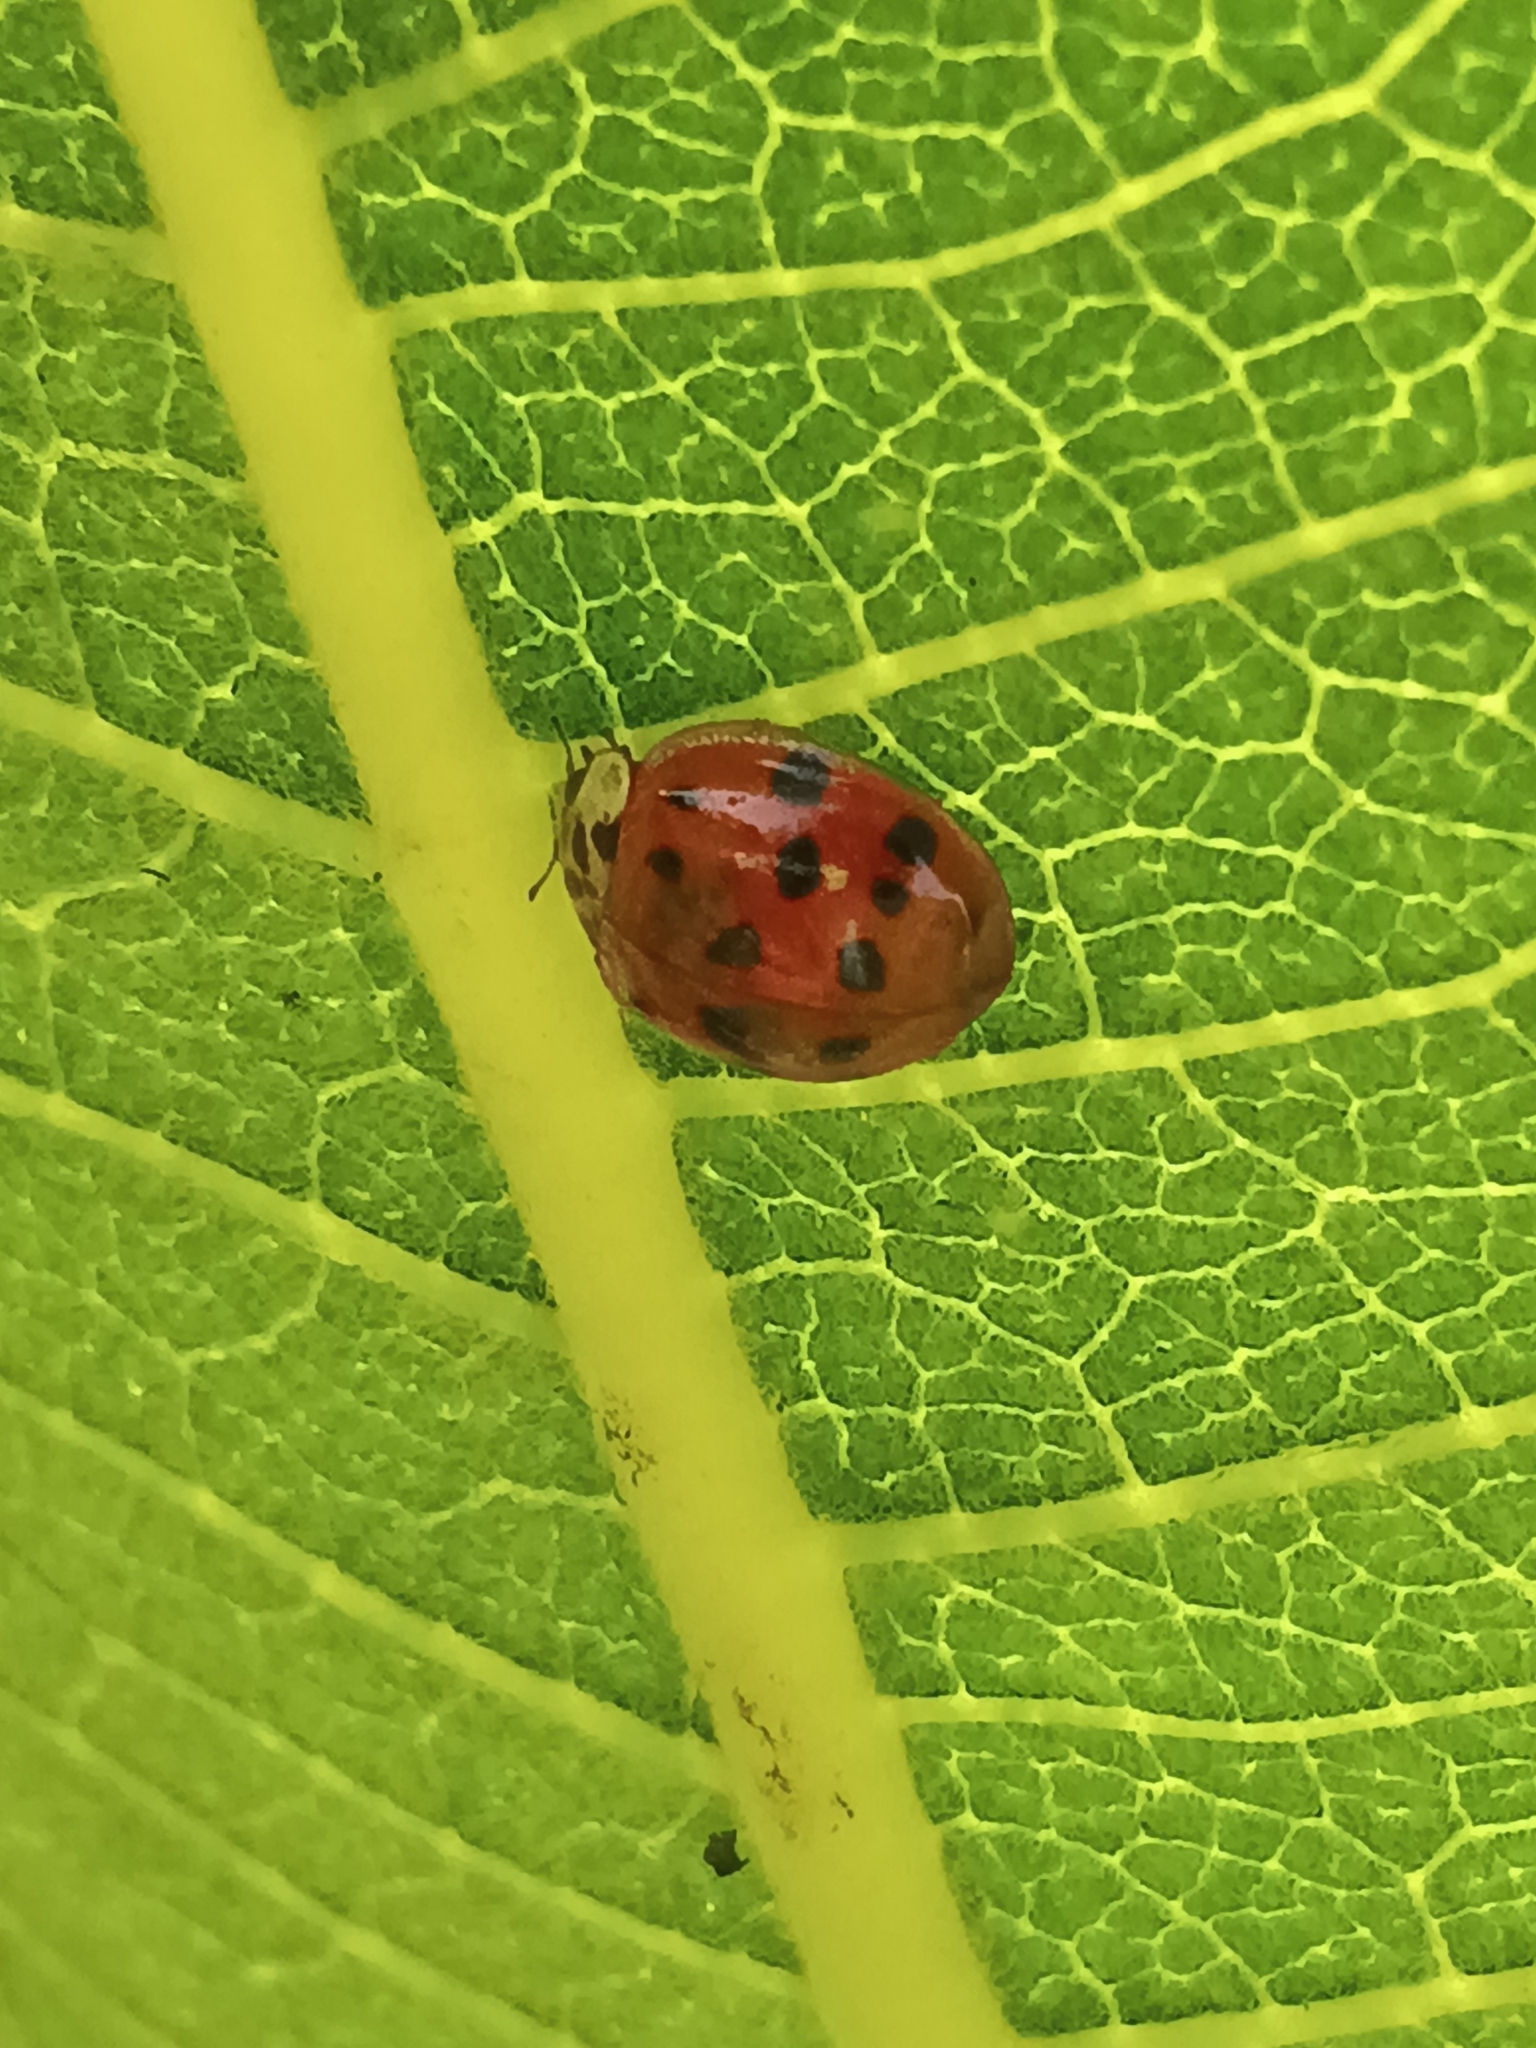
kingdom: Animalia
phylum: Arthropoda
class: Insecta
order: Coleoptera
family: Coccinellidae
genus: Harmonia
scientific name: Harmonia axyridis
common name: Harlequin ladybird
